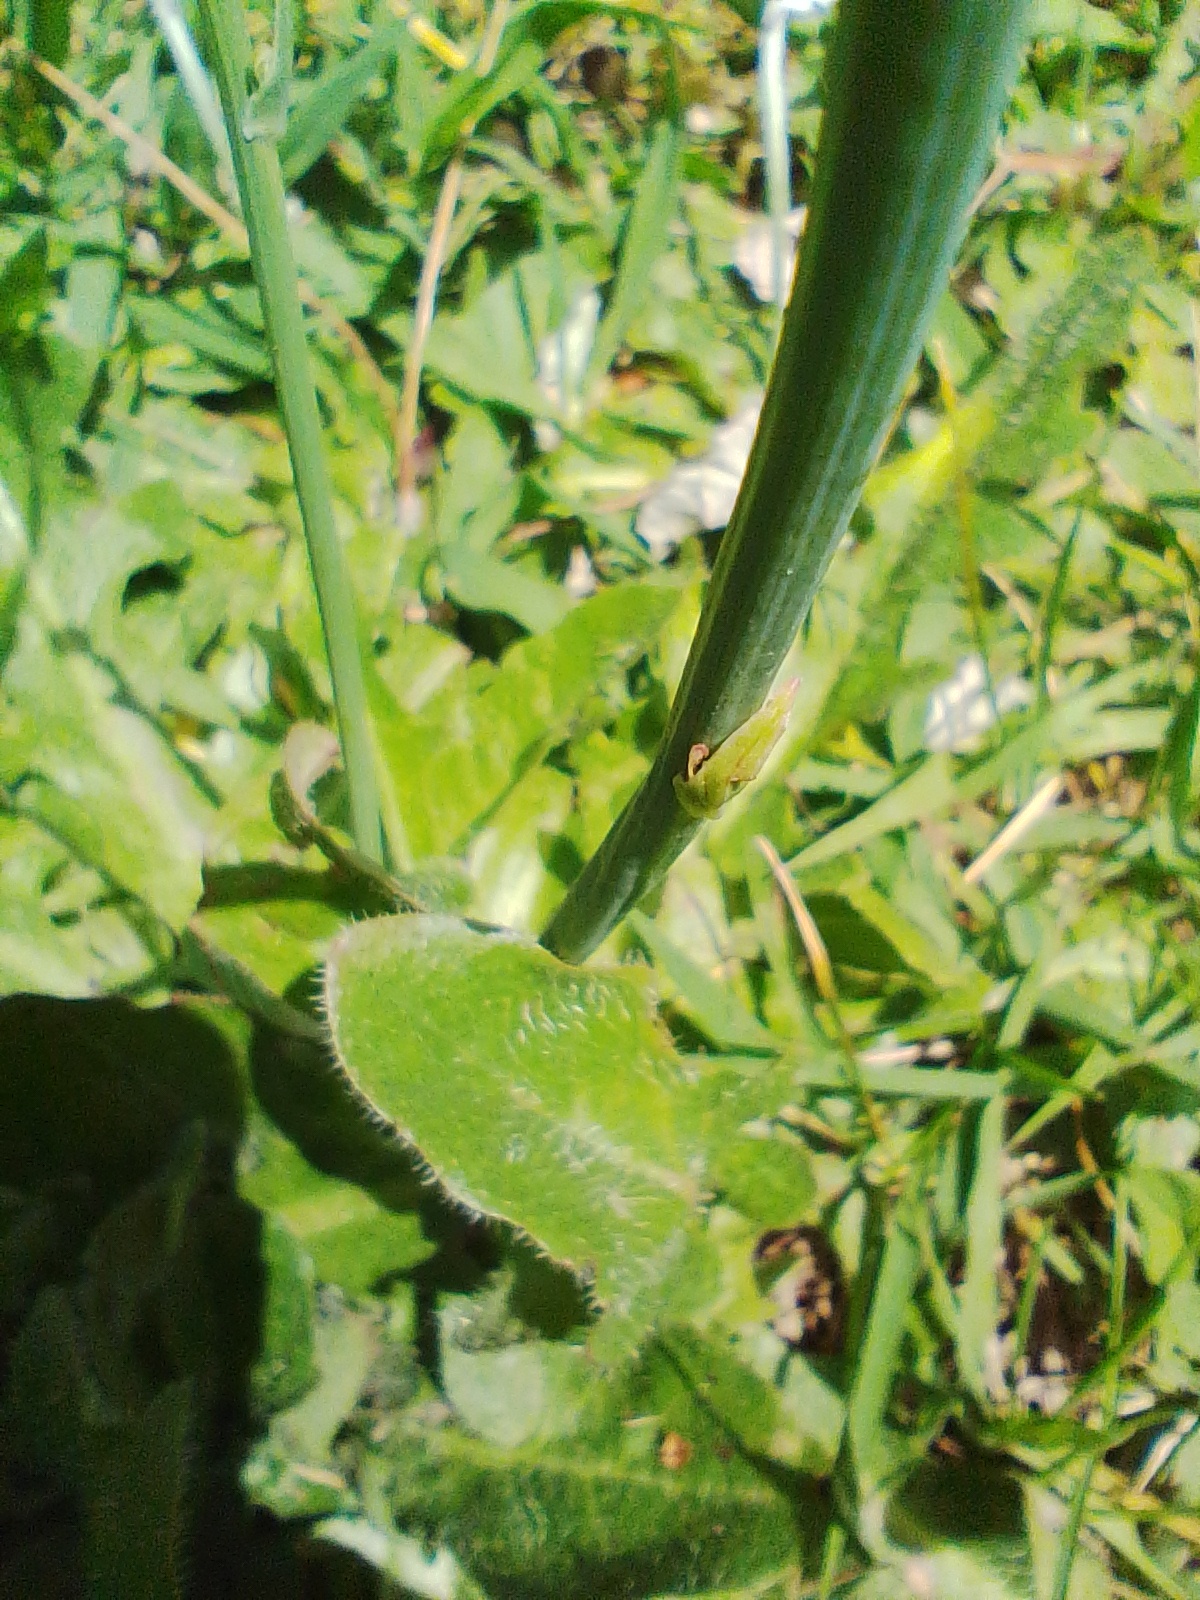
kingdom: Plantae
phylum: Tracheophyta
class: Magnoliopsida
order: Asterales
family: Asteraceae
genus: Hypochaeris
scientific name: Hypochaeris radicata
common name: Flatweed
